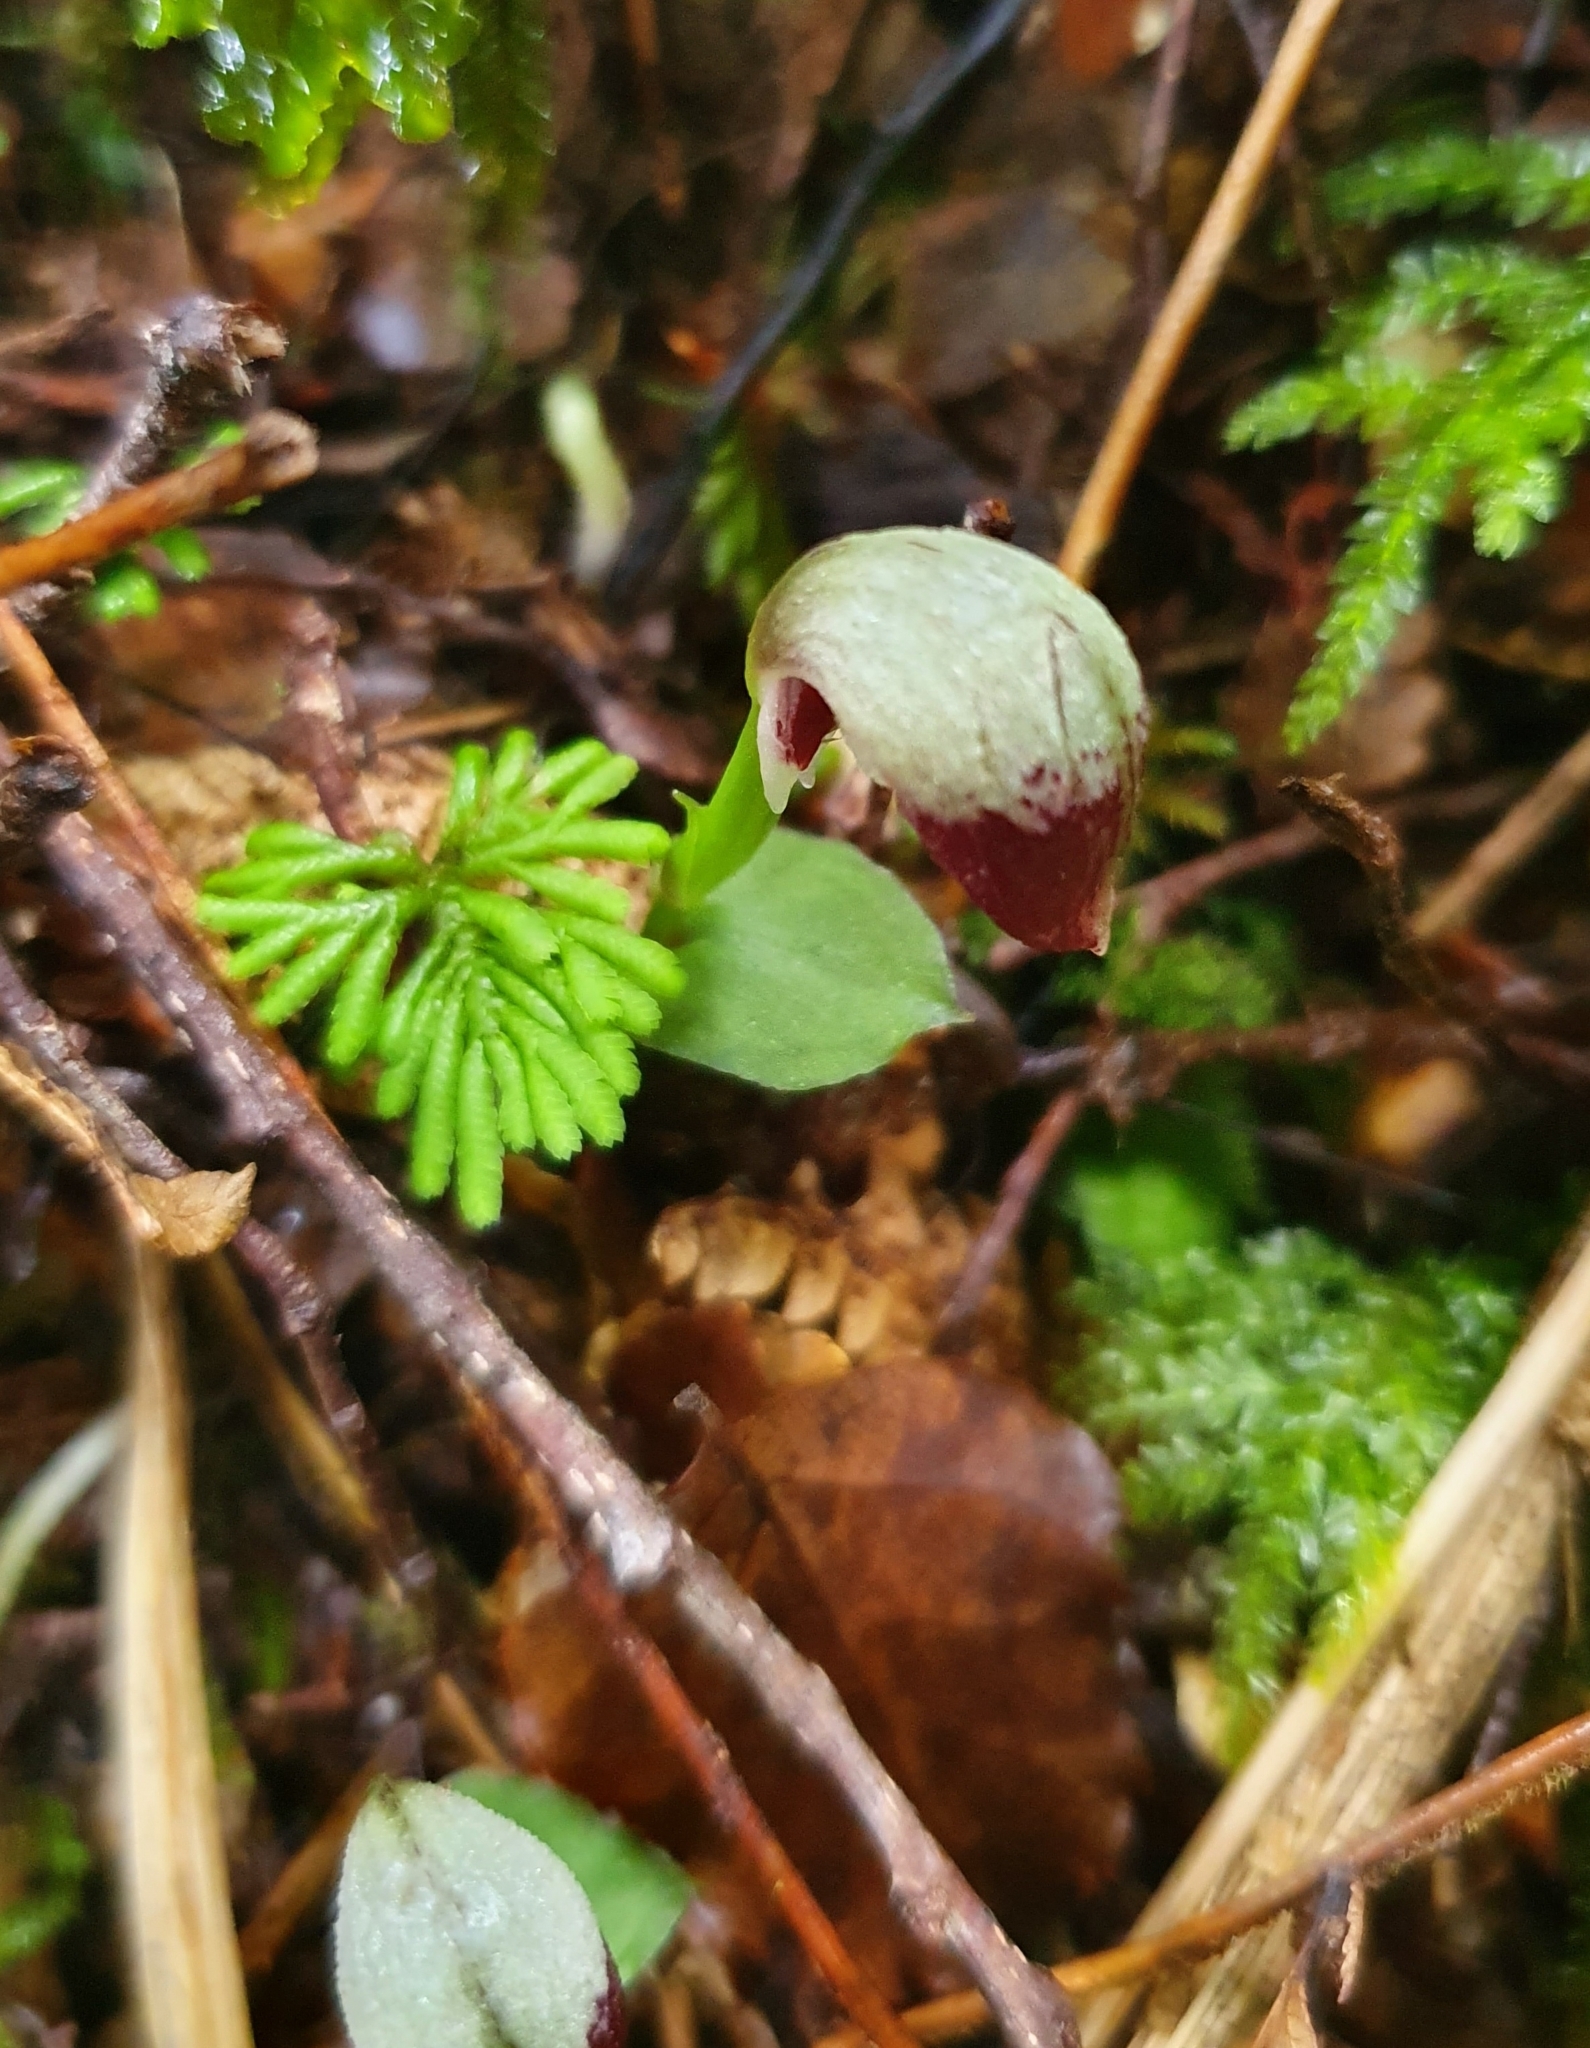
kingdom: Plantae
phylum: Tracheophyta
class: Liliopsida
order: Asparagales
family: Orchidaceae
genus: Corybas
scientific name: Corybas cheesemanii
